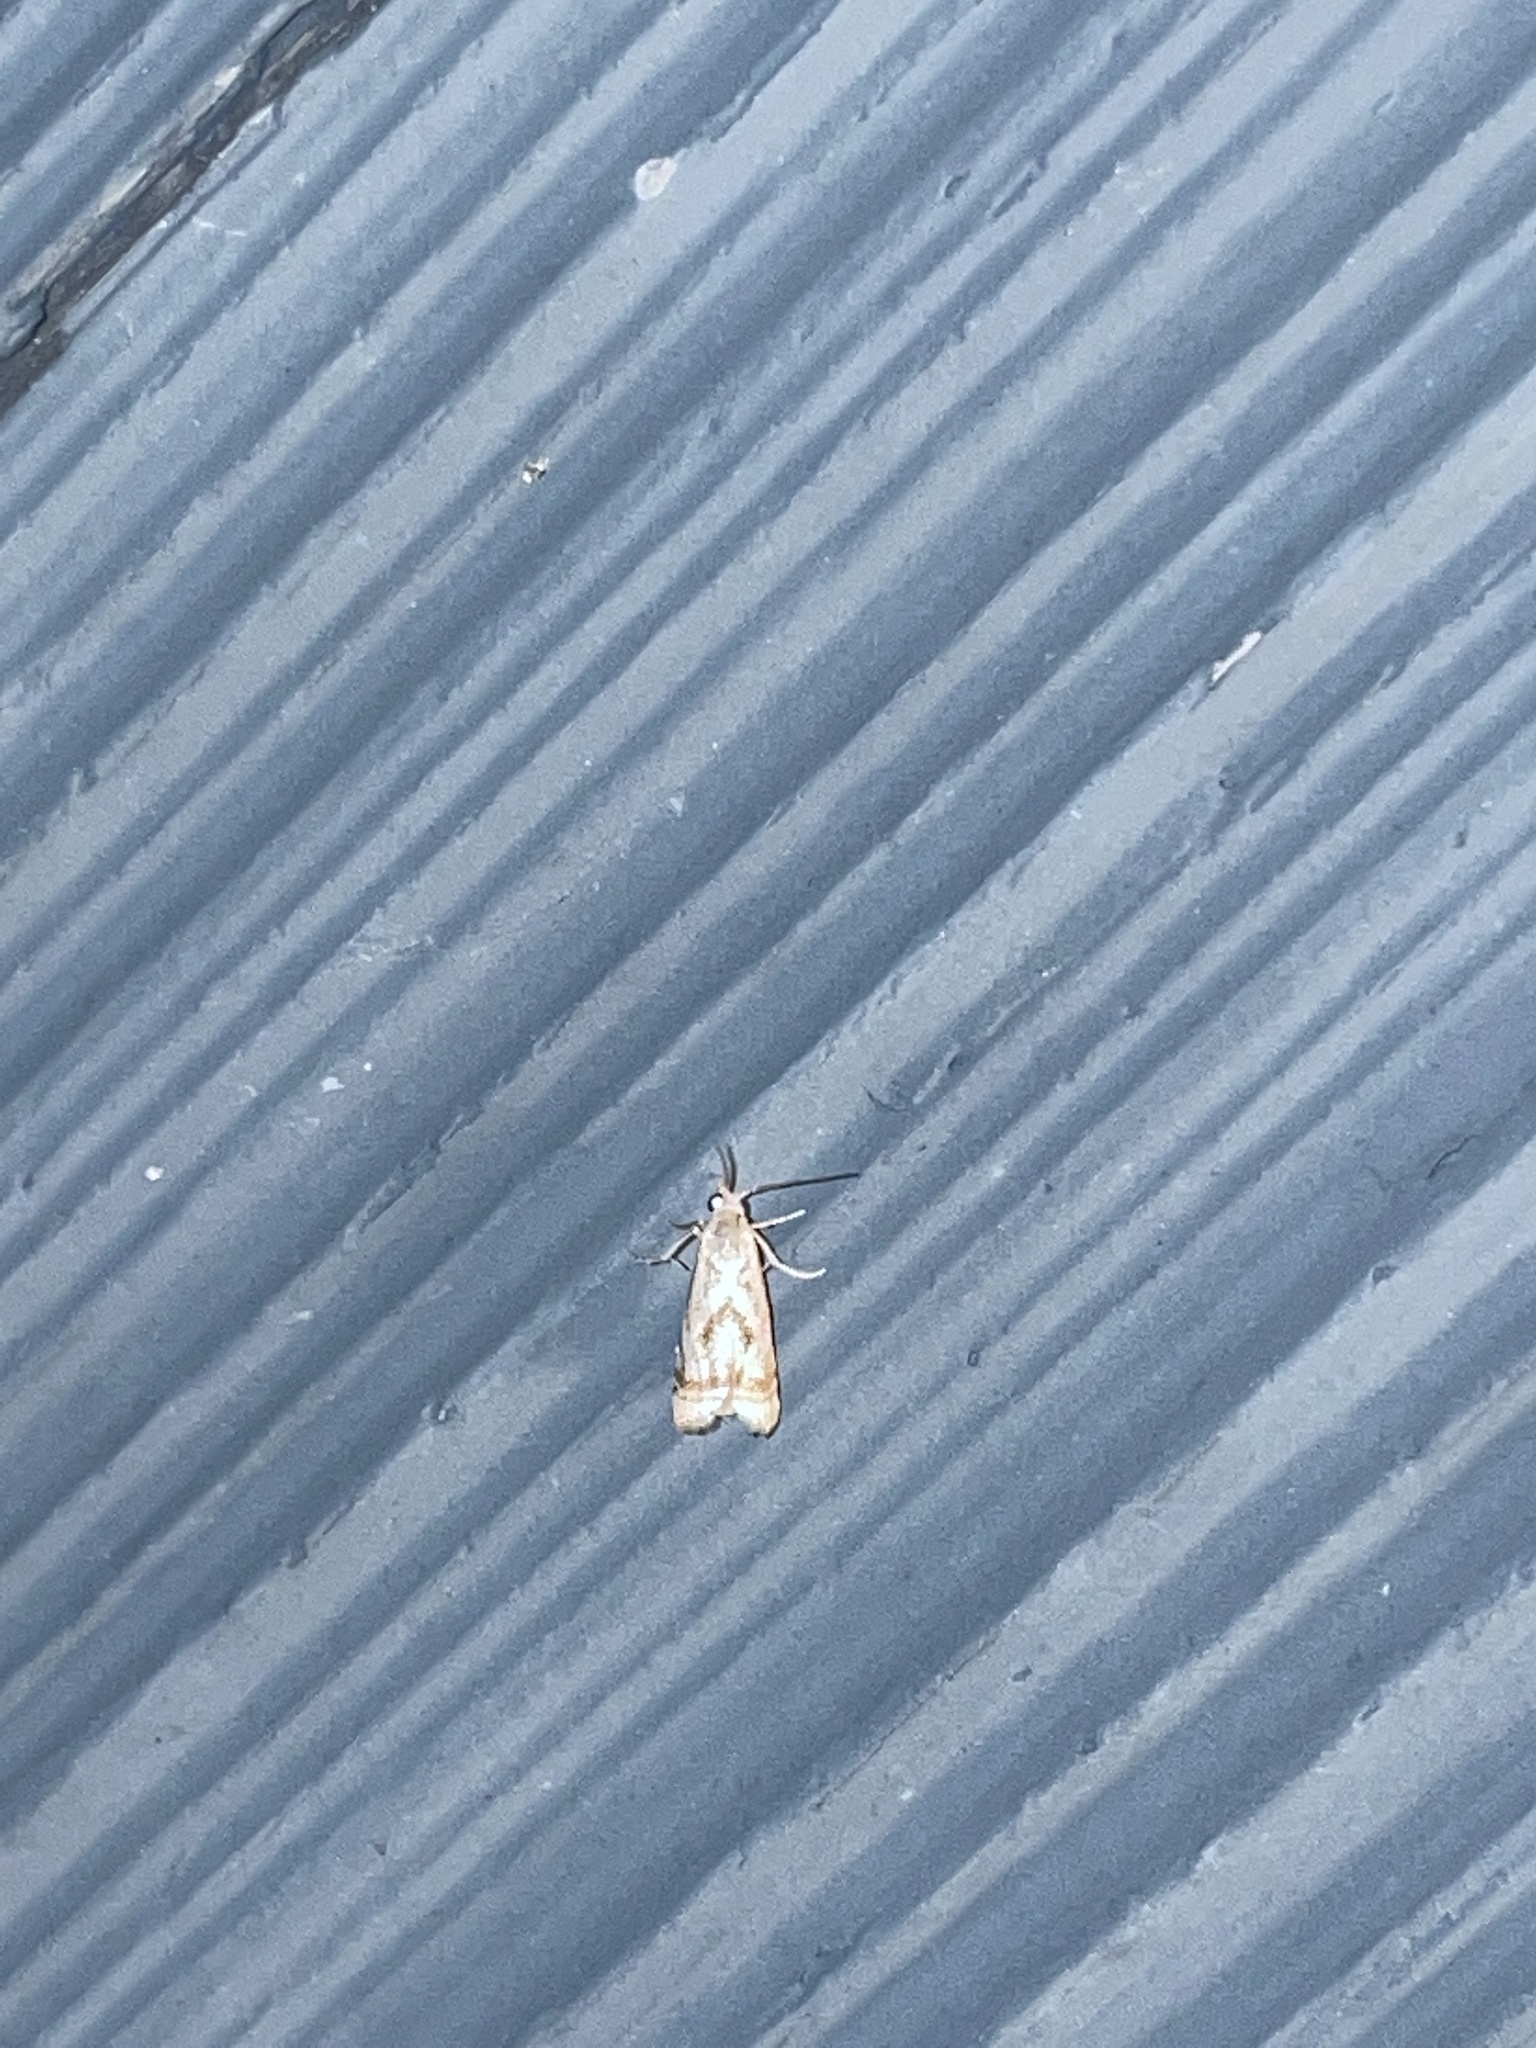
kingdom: Animalia
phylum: Arthropoda
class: Insecta
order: Lepidoptera
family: Crambidae
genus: Microcrambus
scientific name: Microcrambus elegans
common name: Elegant grass-veneer
